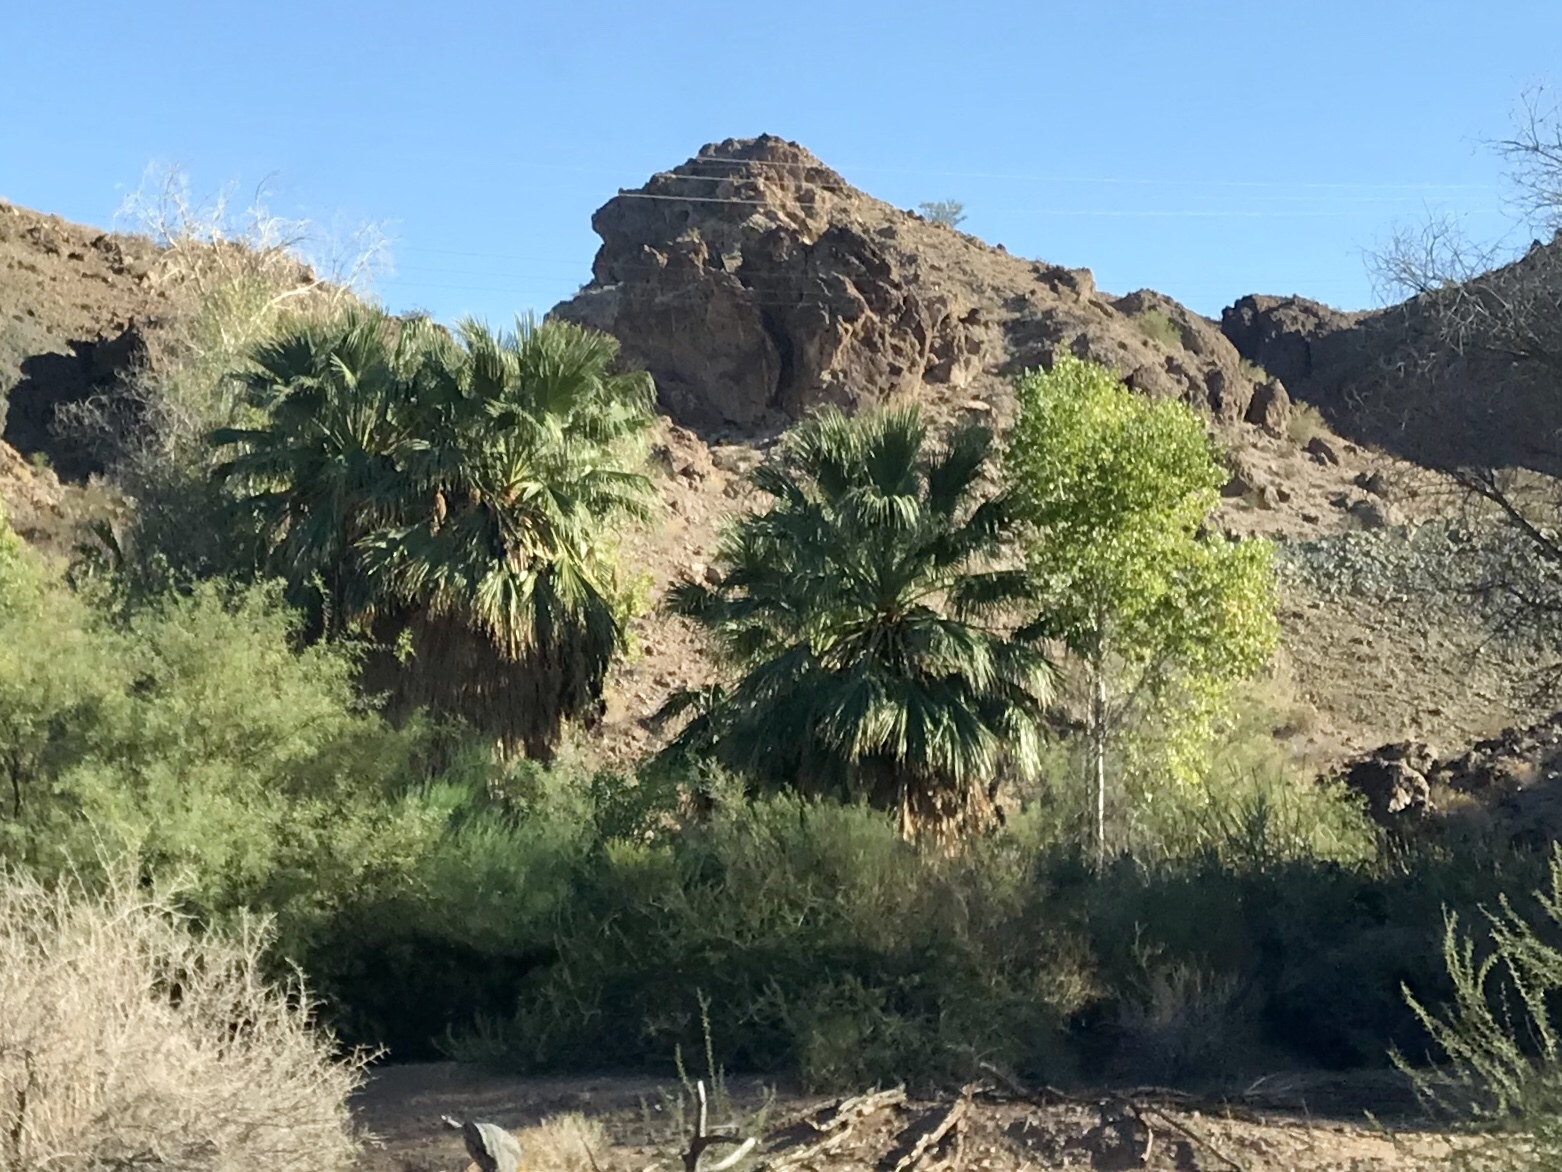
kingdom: Plantae
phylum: Tracheophyta
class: Liliopsida
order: Arecales
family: Arecaceae
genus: Washingtonia
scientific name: Washingtonia filifera
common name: California fan palm
